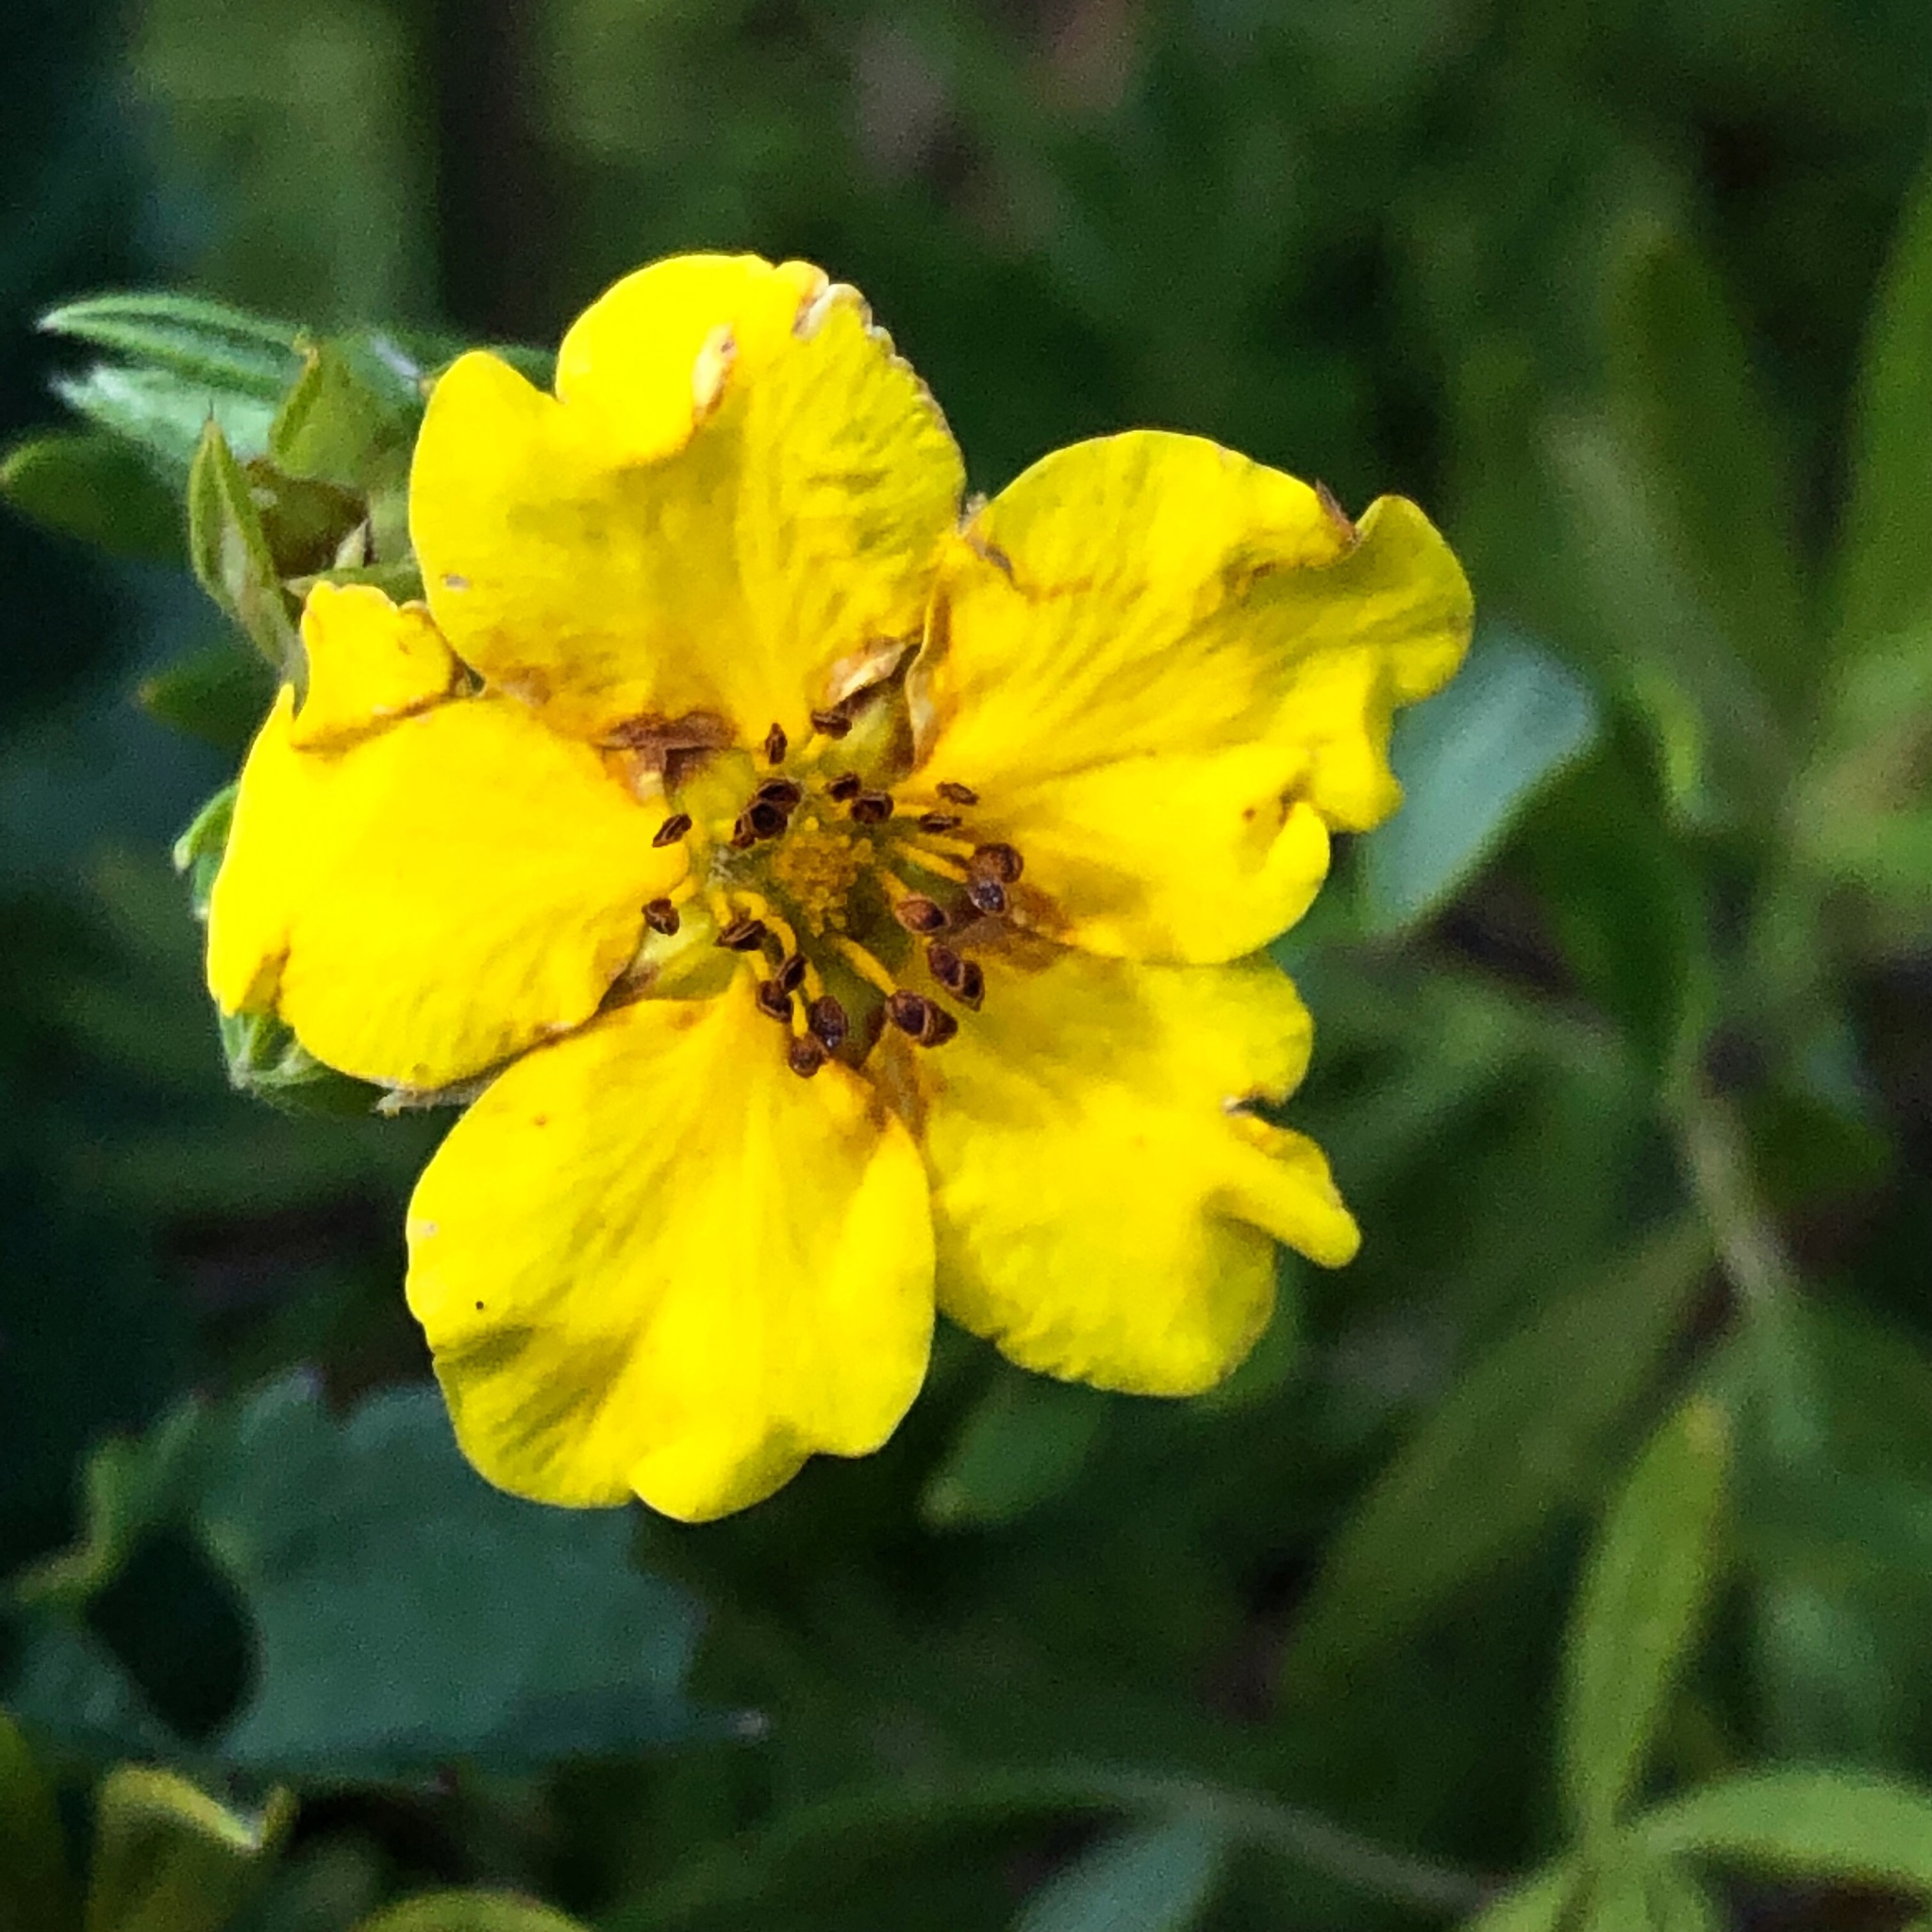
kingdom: Plantae
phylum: Tracheophyta
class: Magnoliopsida
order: Rosales
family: Rosaceae
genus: Dasiphora
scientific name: Dasiphora fruticosa
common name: Shrubby cinquefoil
